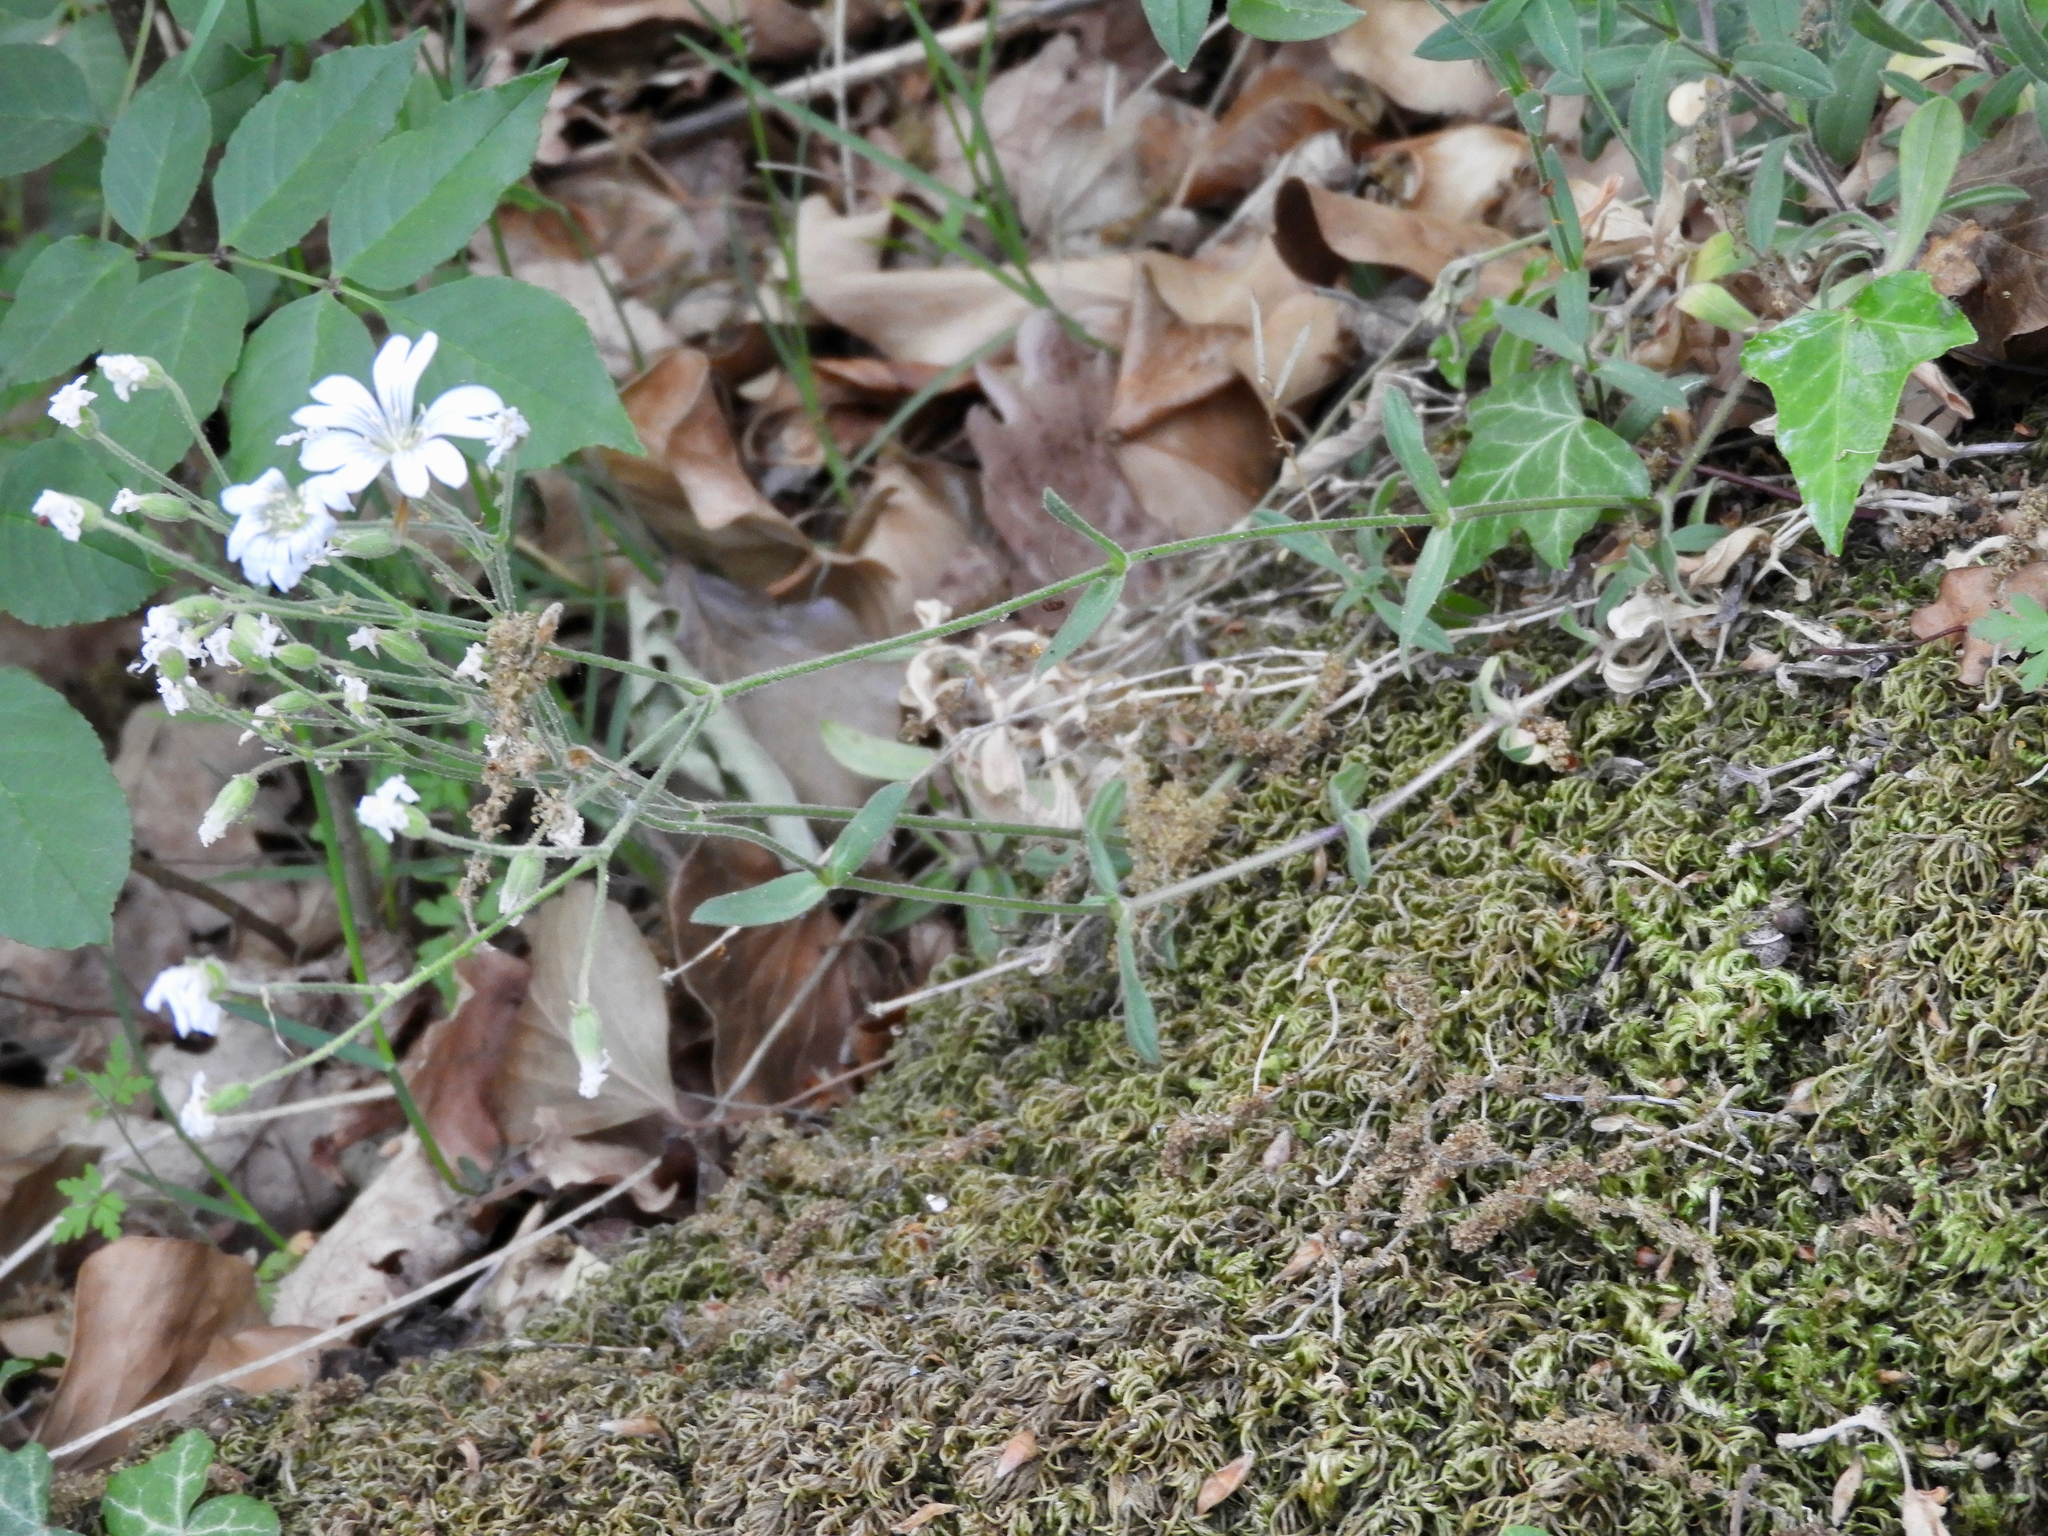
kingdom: Plantae
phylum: Tracheophyta
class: Magnoliopsida
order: Caryophyllales
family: Caryophyllaceae
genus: Cerastium
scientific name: Cerastium arvense
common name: Field mouse-ear
